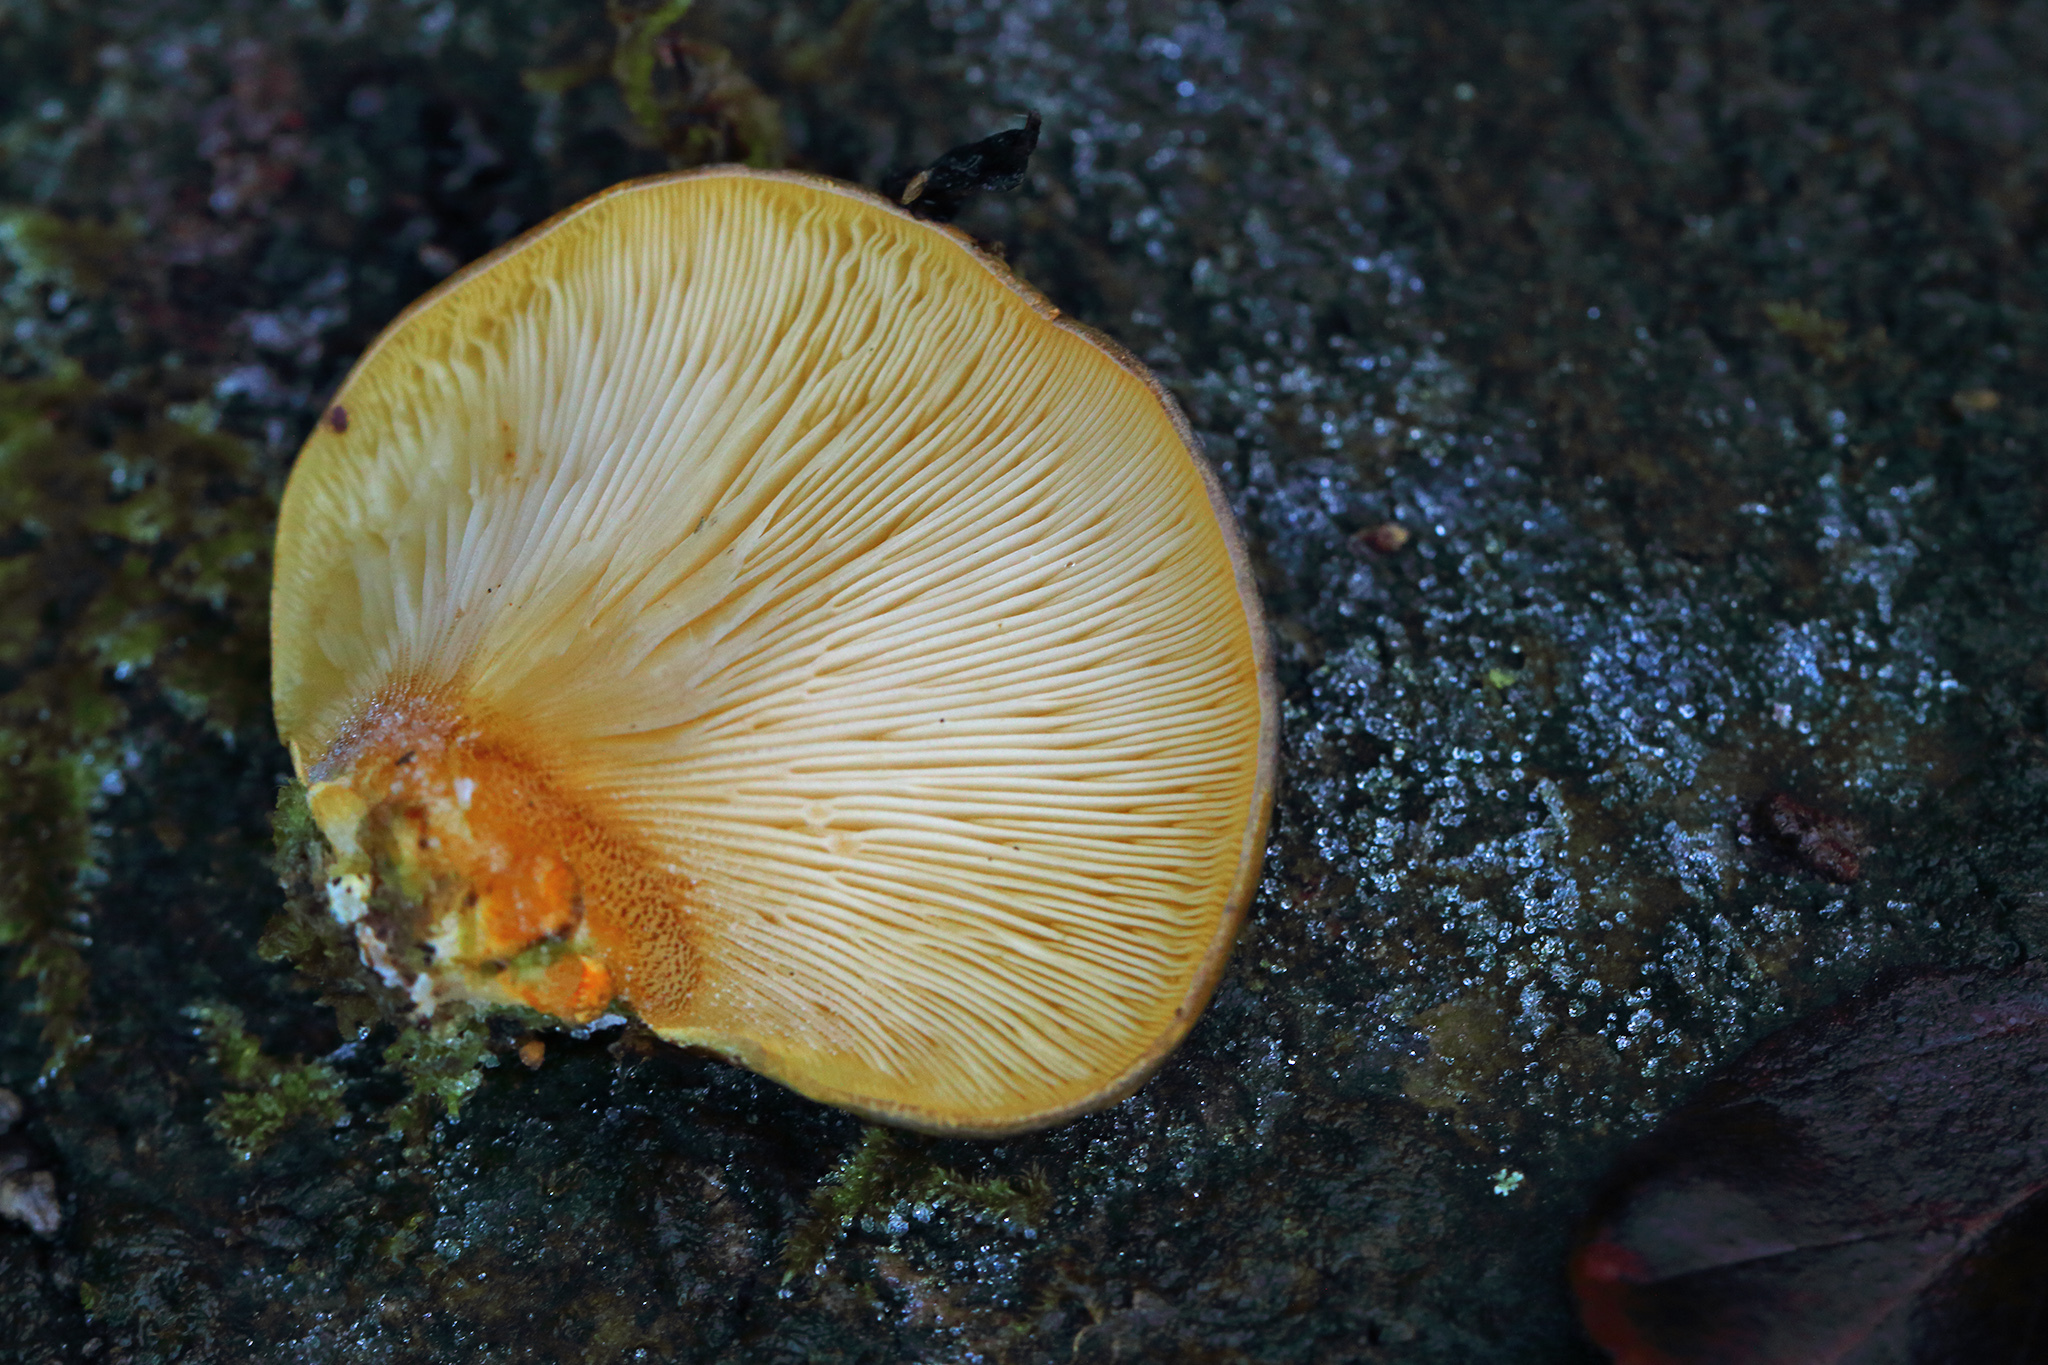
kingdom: Fungi
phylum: Basidiomycota
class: Agaricomycetes
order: Agaricales
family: Sarcomyxaceae
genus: Sarcomyxa
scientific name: Sarcomyxa serotina
